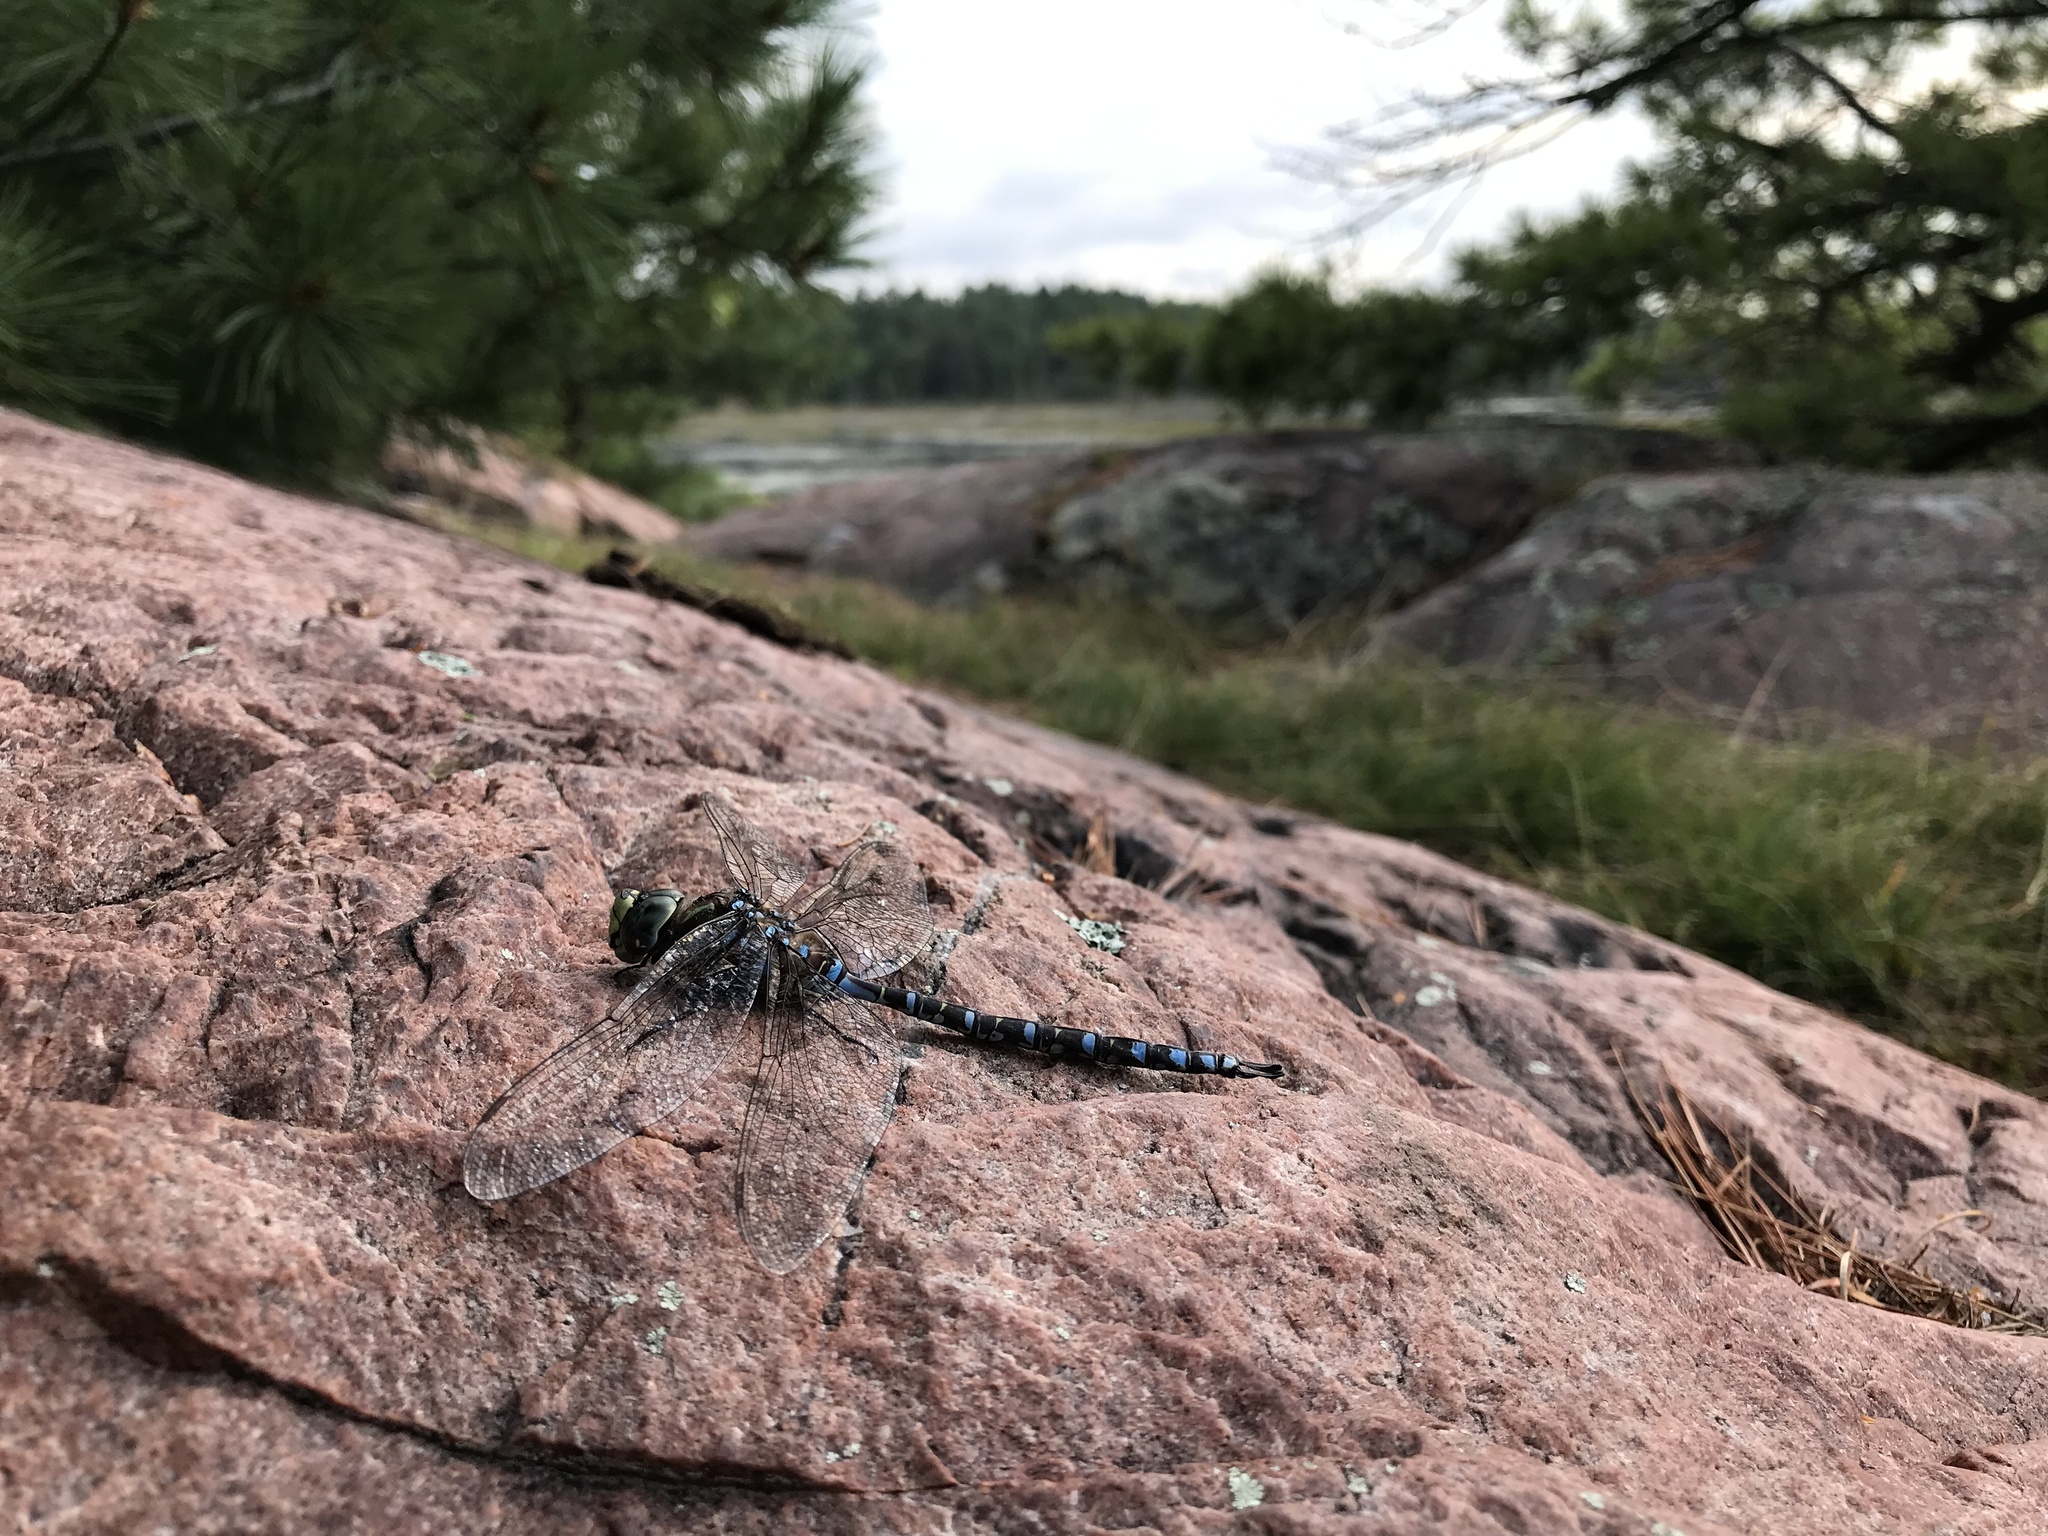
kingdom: Animalia
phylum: Arthropoda
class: Insecta
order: Odonata
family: Aeshnidae
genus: Aeshna
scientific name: Aeshna eremita
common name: Lake darner
